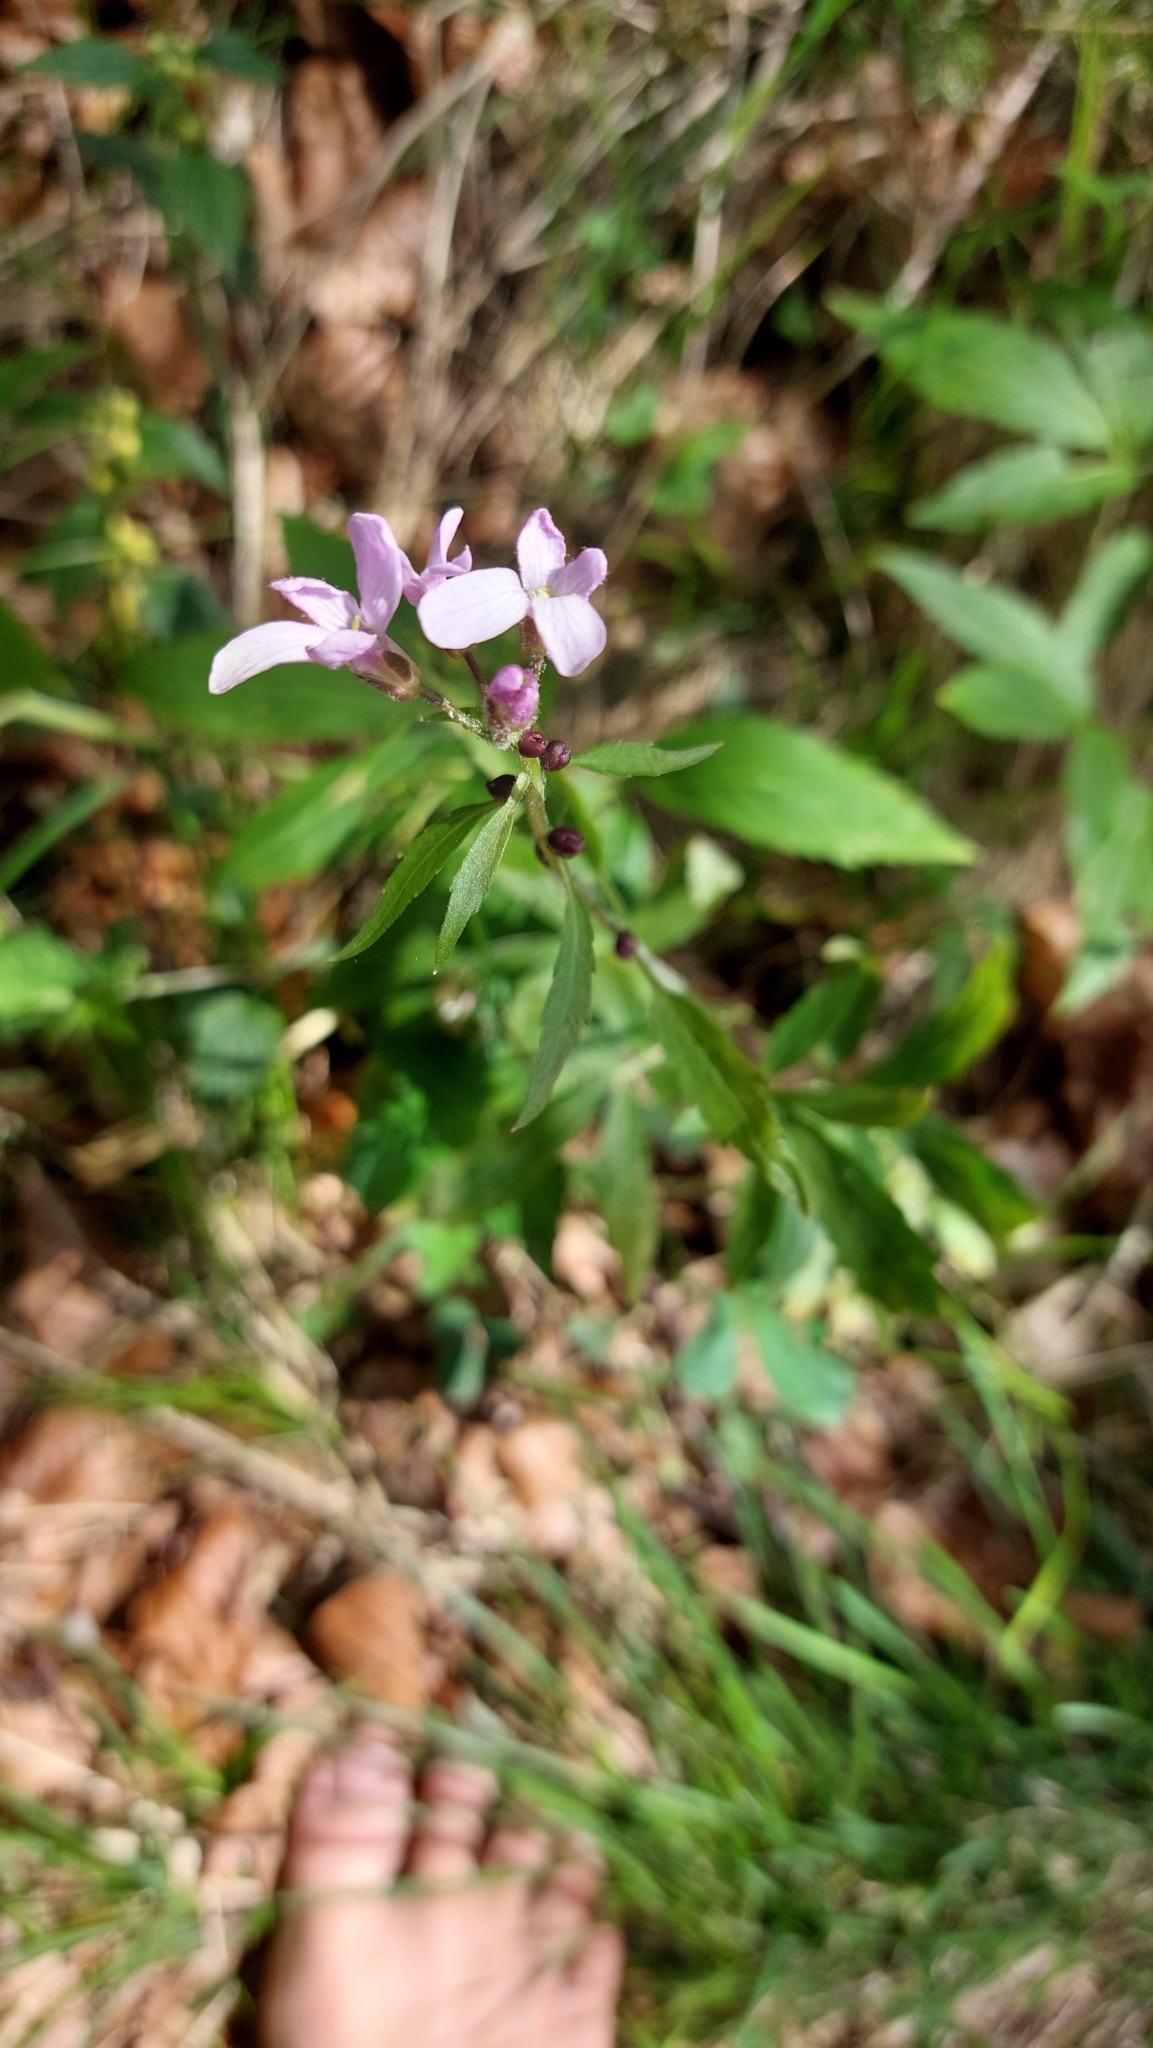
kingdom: Plantae
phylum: Tracheophyta
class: Magnoliopsida
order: Brassicales
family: Brassicaceae
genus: Cardamine
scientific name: Cardamine bulbifera
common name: Coralroot bittercress
